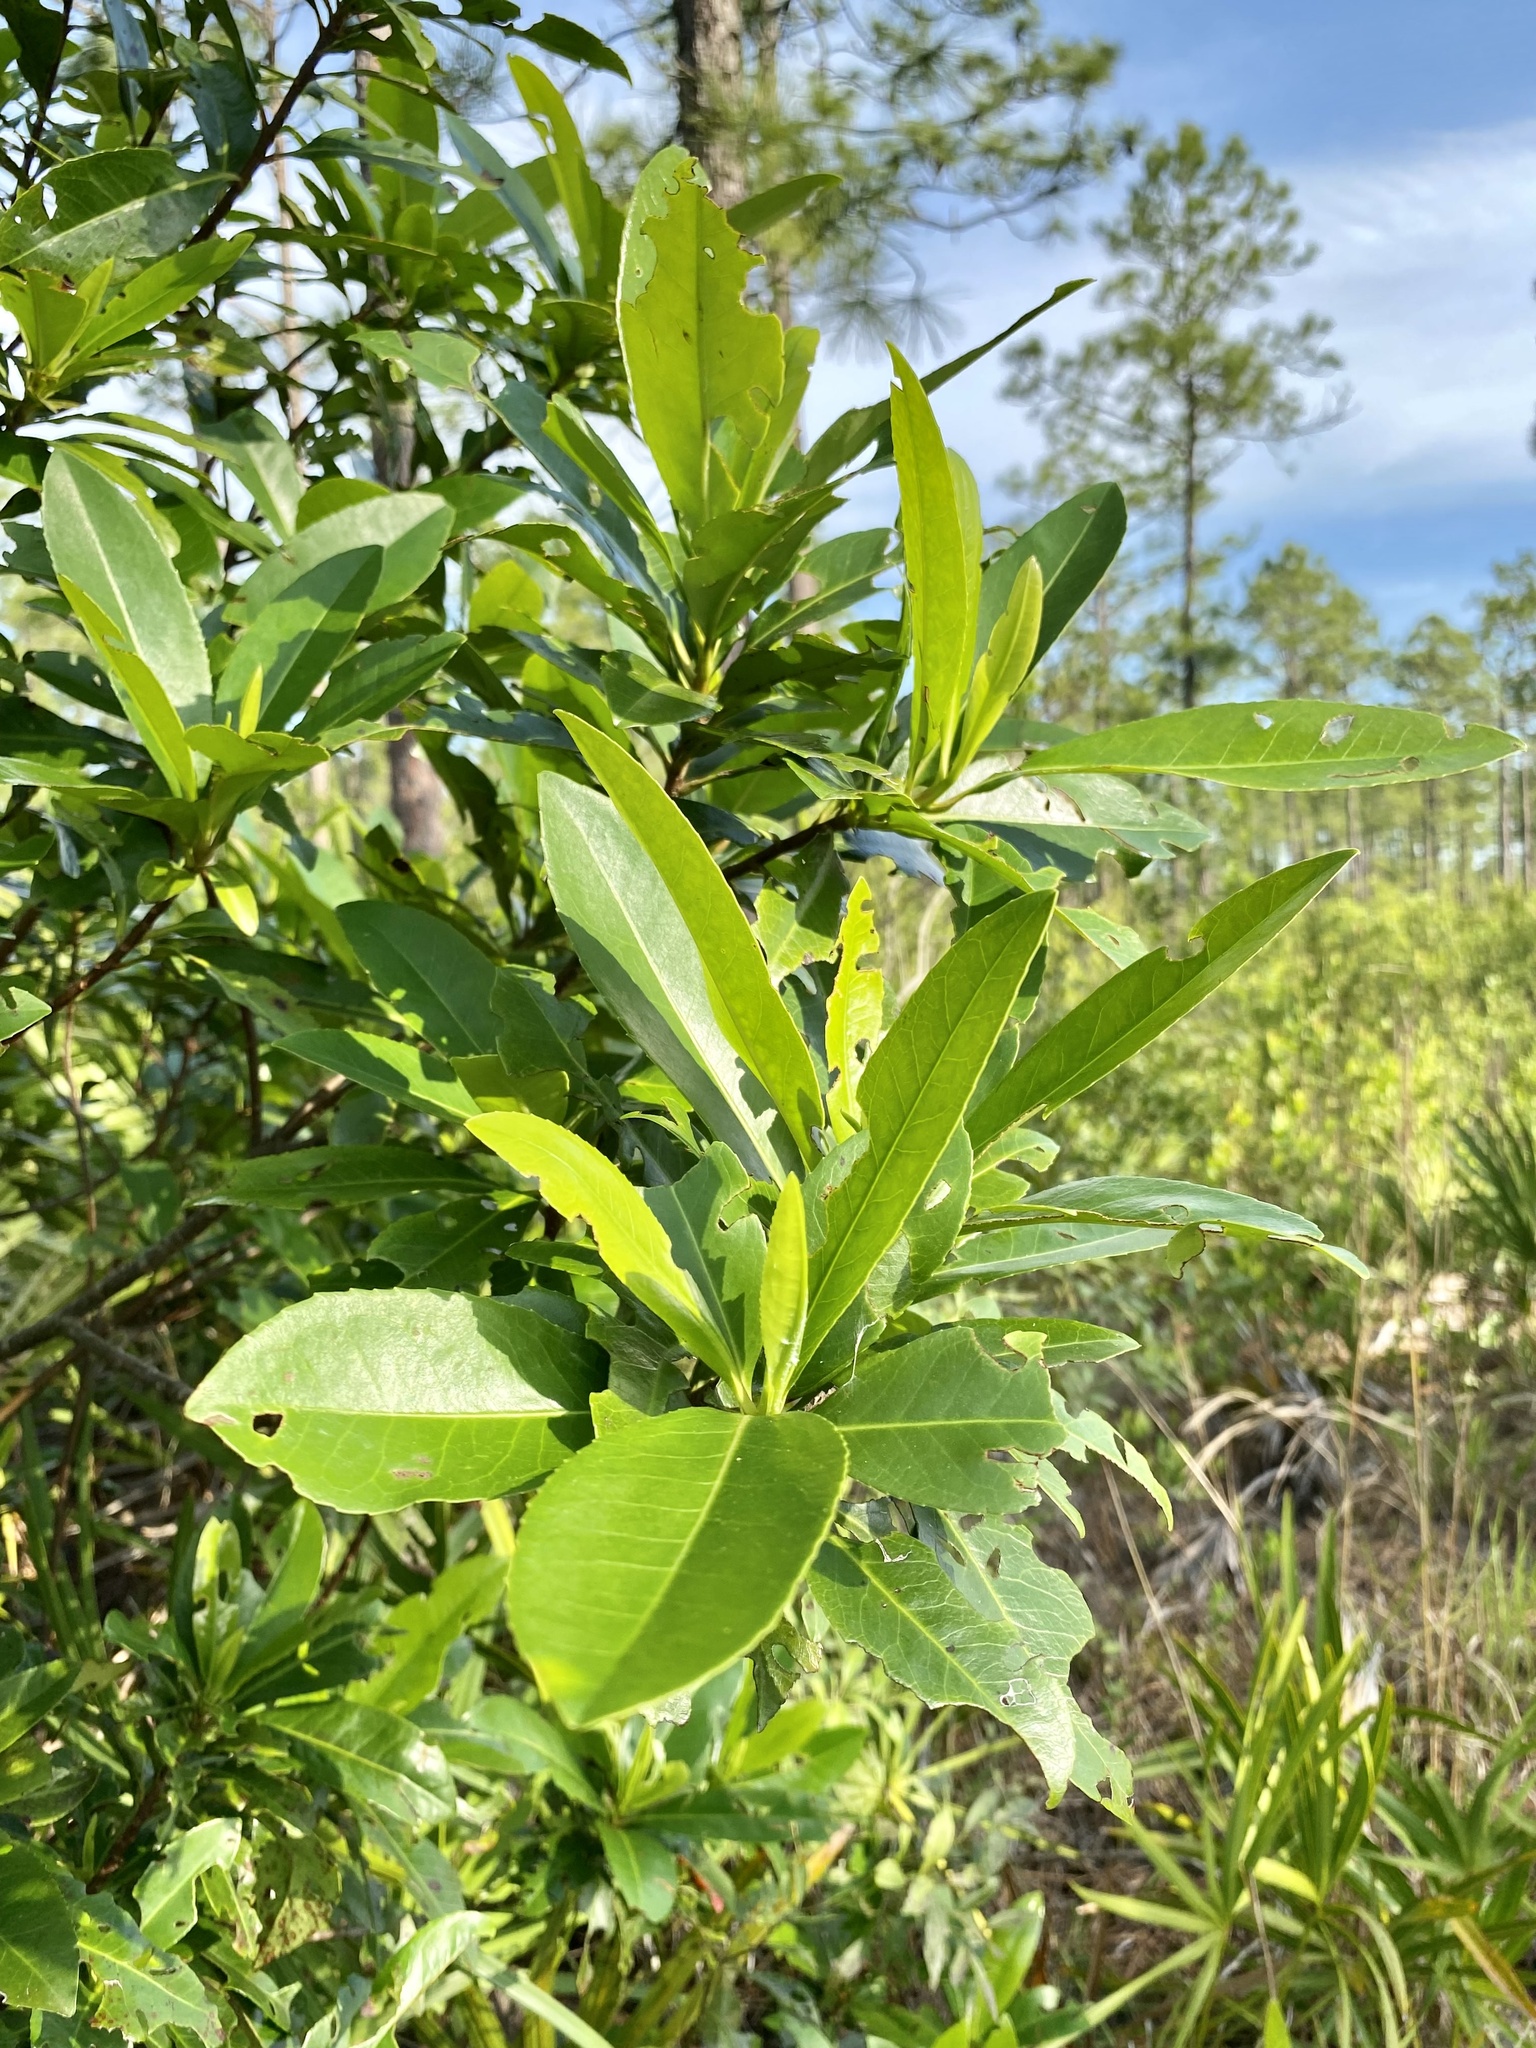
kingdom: Plantae
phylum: Tracheophyta
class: Magnoliopsida
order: Ericales
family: Theaceae
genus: Gordonia
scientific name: Gordonia lasianthus
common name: Loblolly bay
